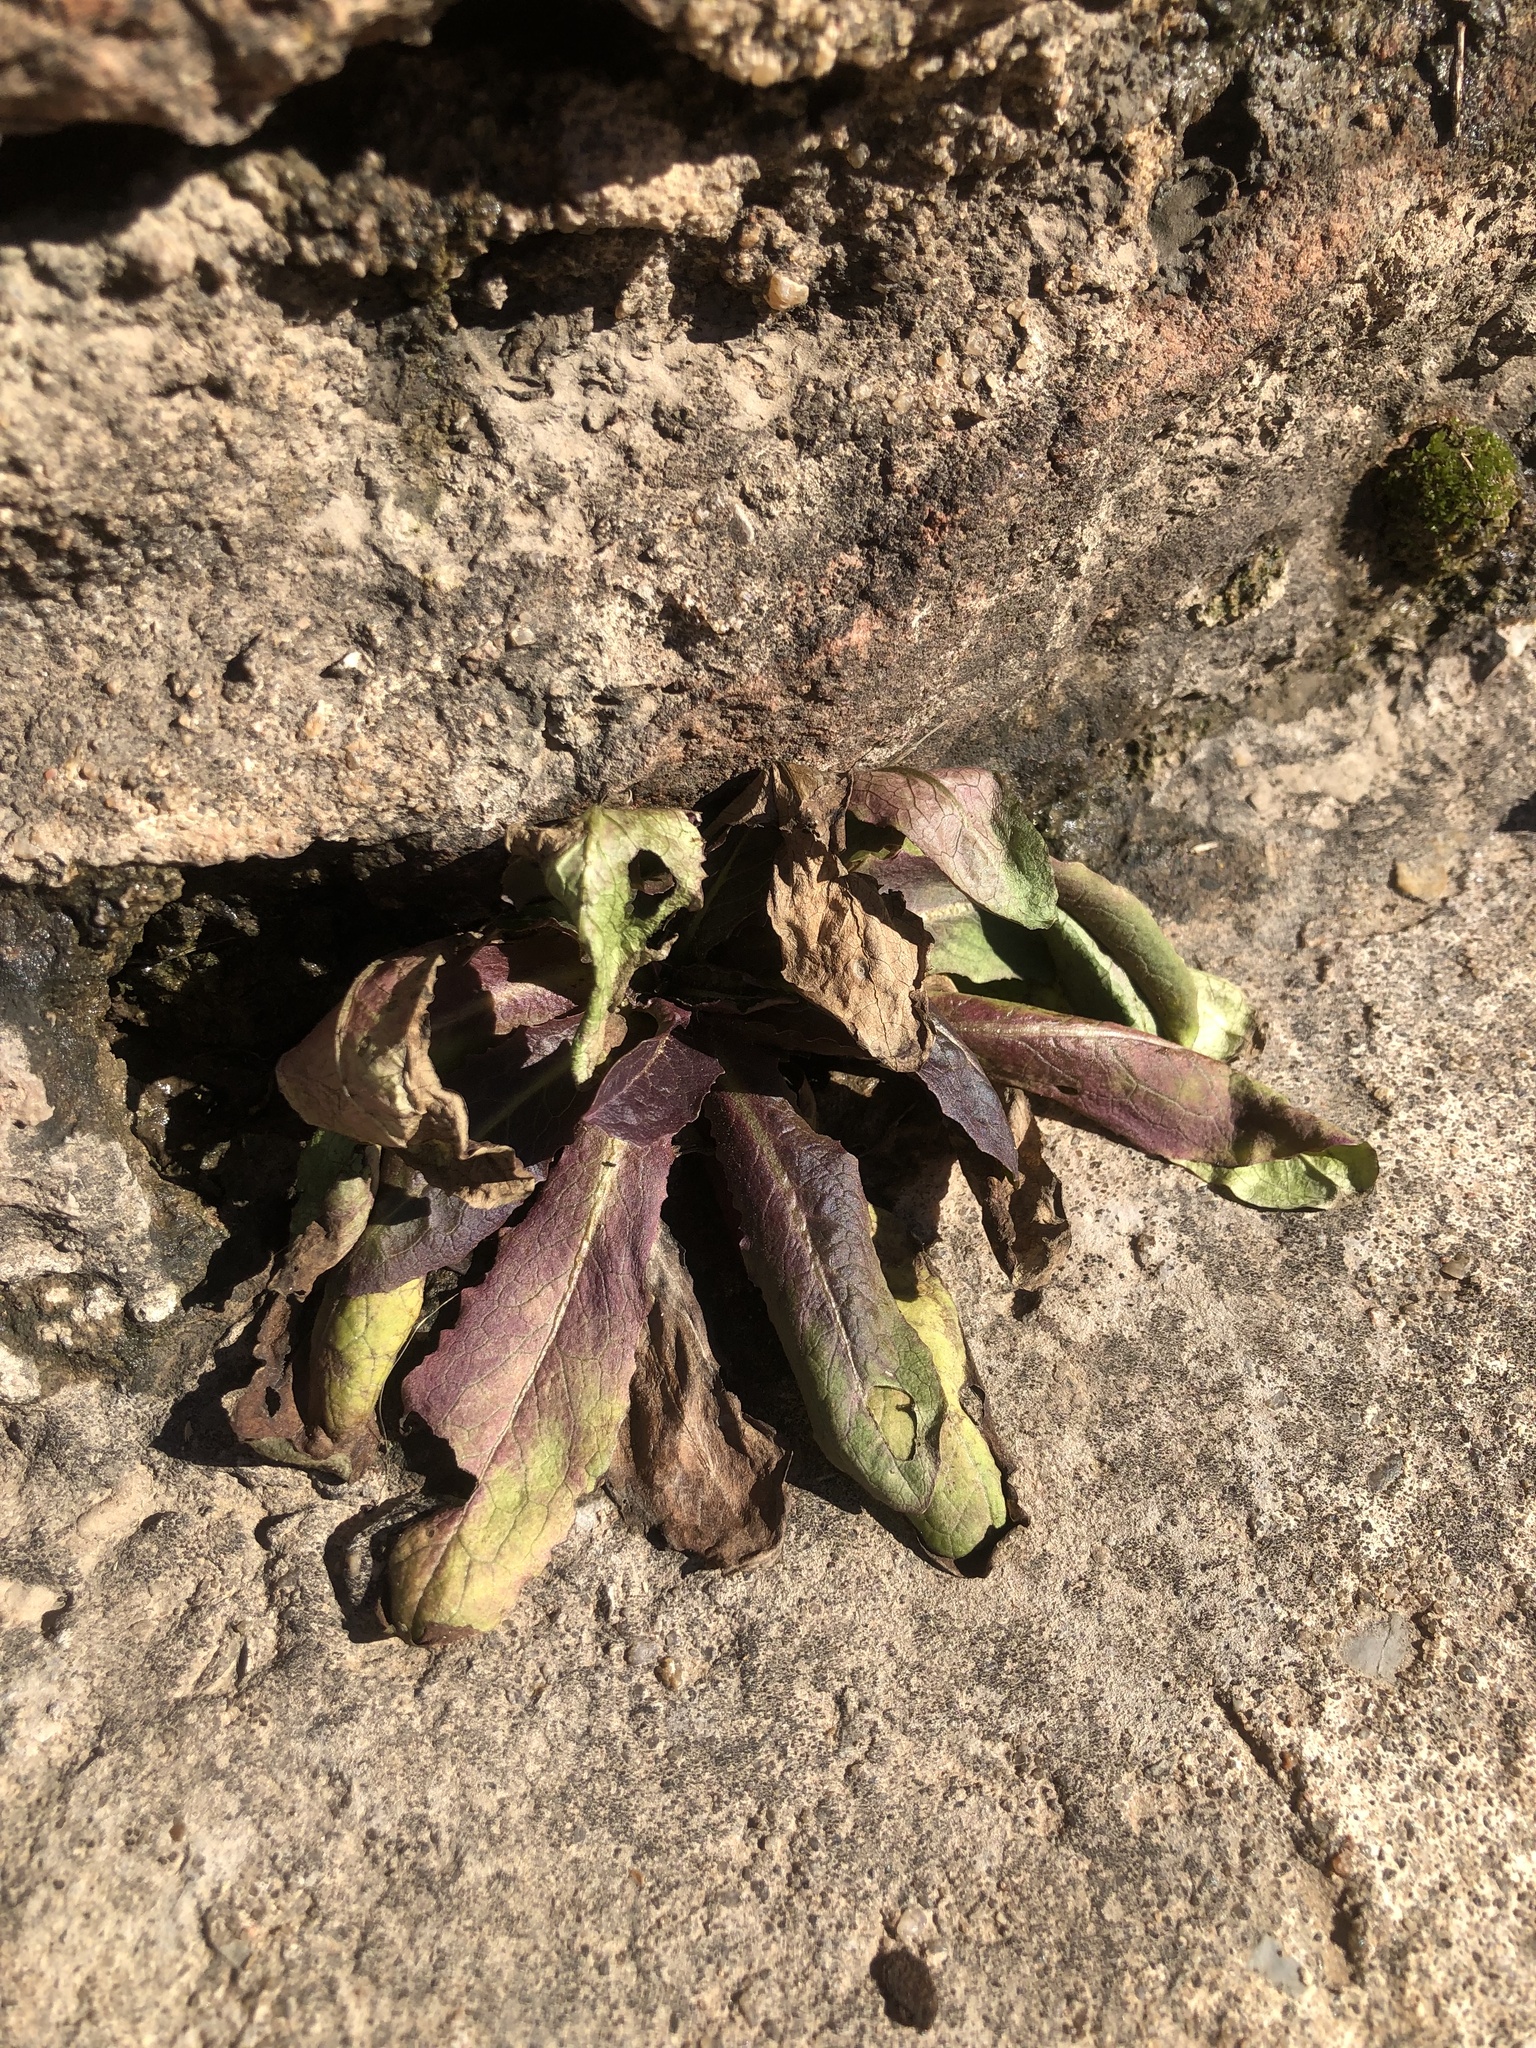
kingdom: Plantae
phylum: Tracheophyta
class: Magnoliopsida
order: Asterales
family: Asteraceae
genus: Lactuca
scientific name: Lactuca serriola
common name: Prickly lettuce
